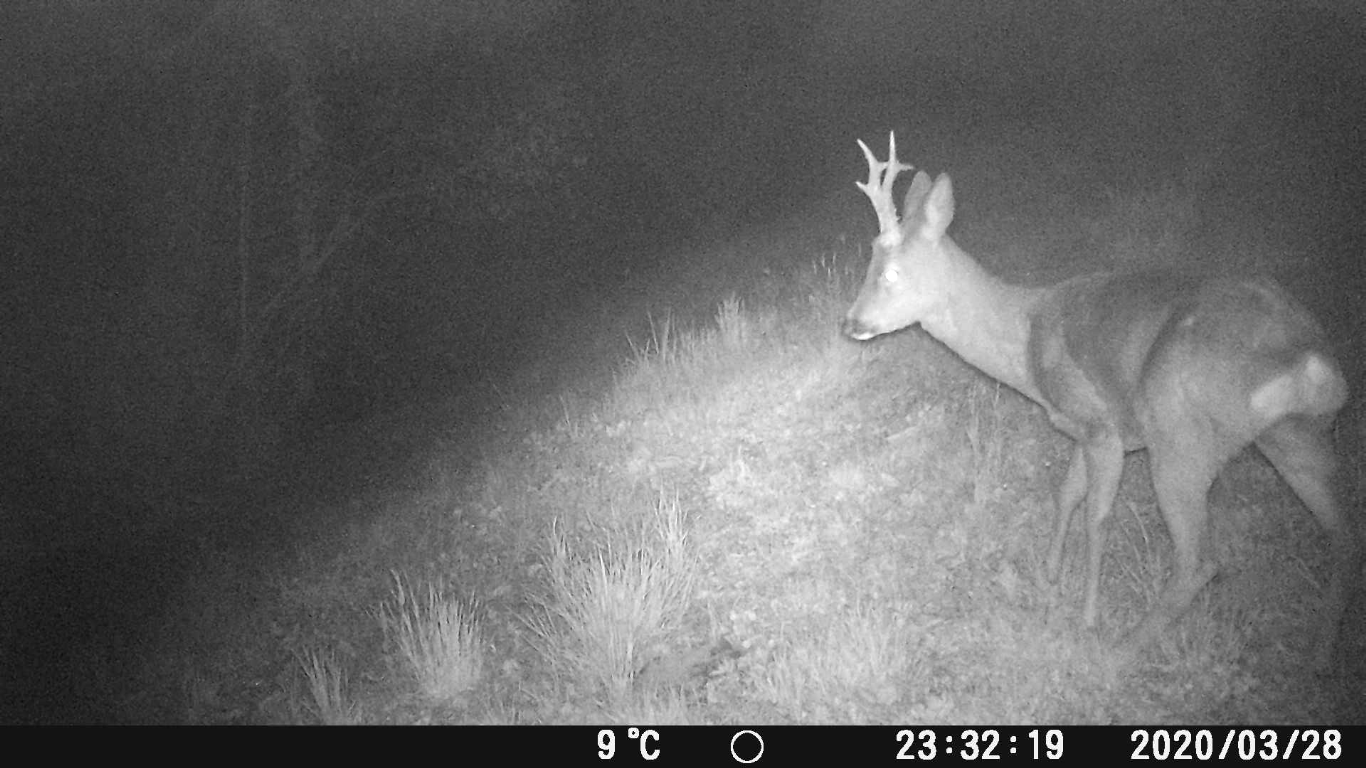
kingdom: Animalia
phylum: Chordata
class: Mammalia
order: Artiodactyla
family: Cervidae
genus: Capreolus
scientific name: Capreolus capreolus
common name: Western roe deer
